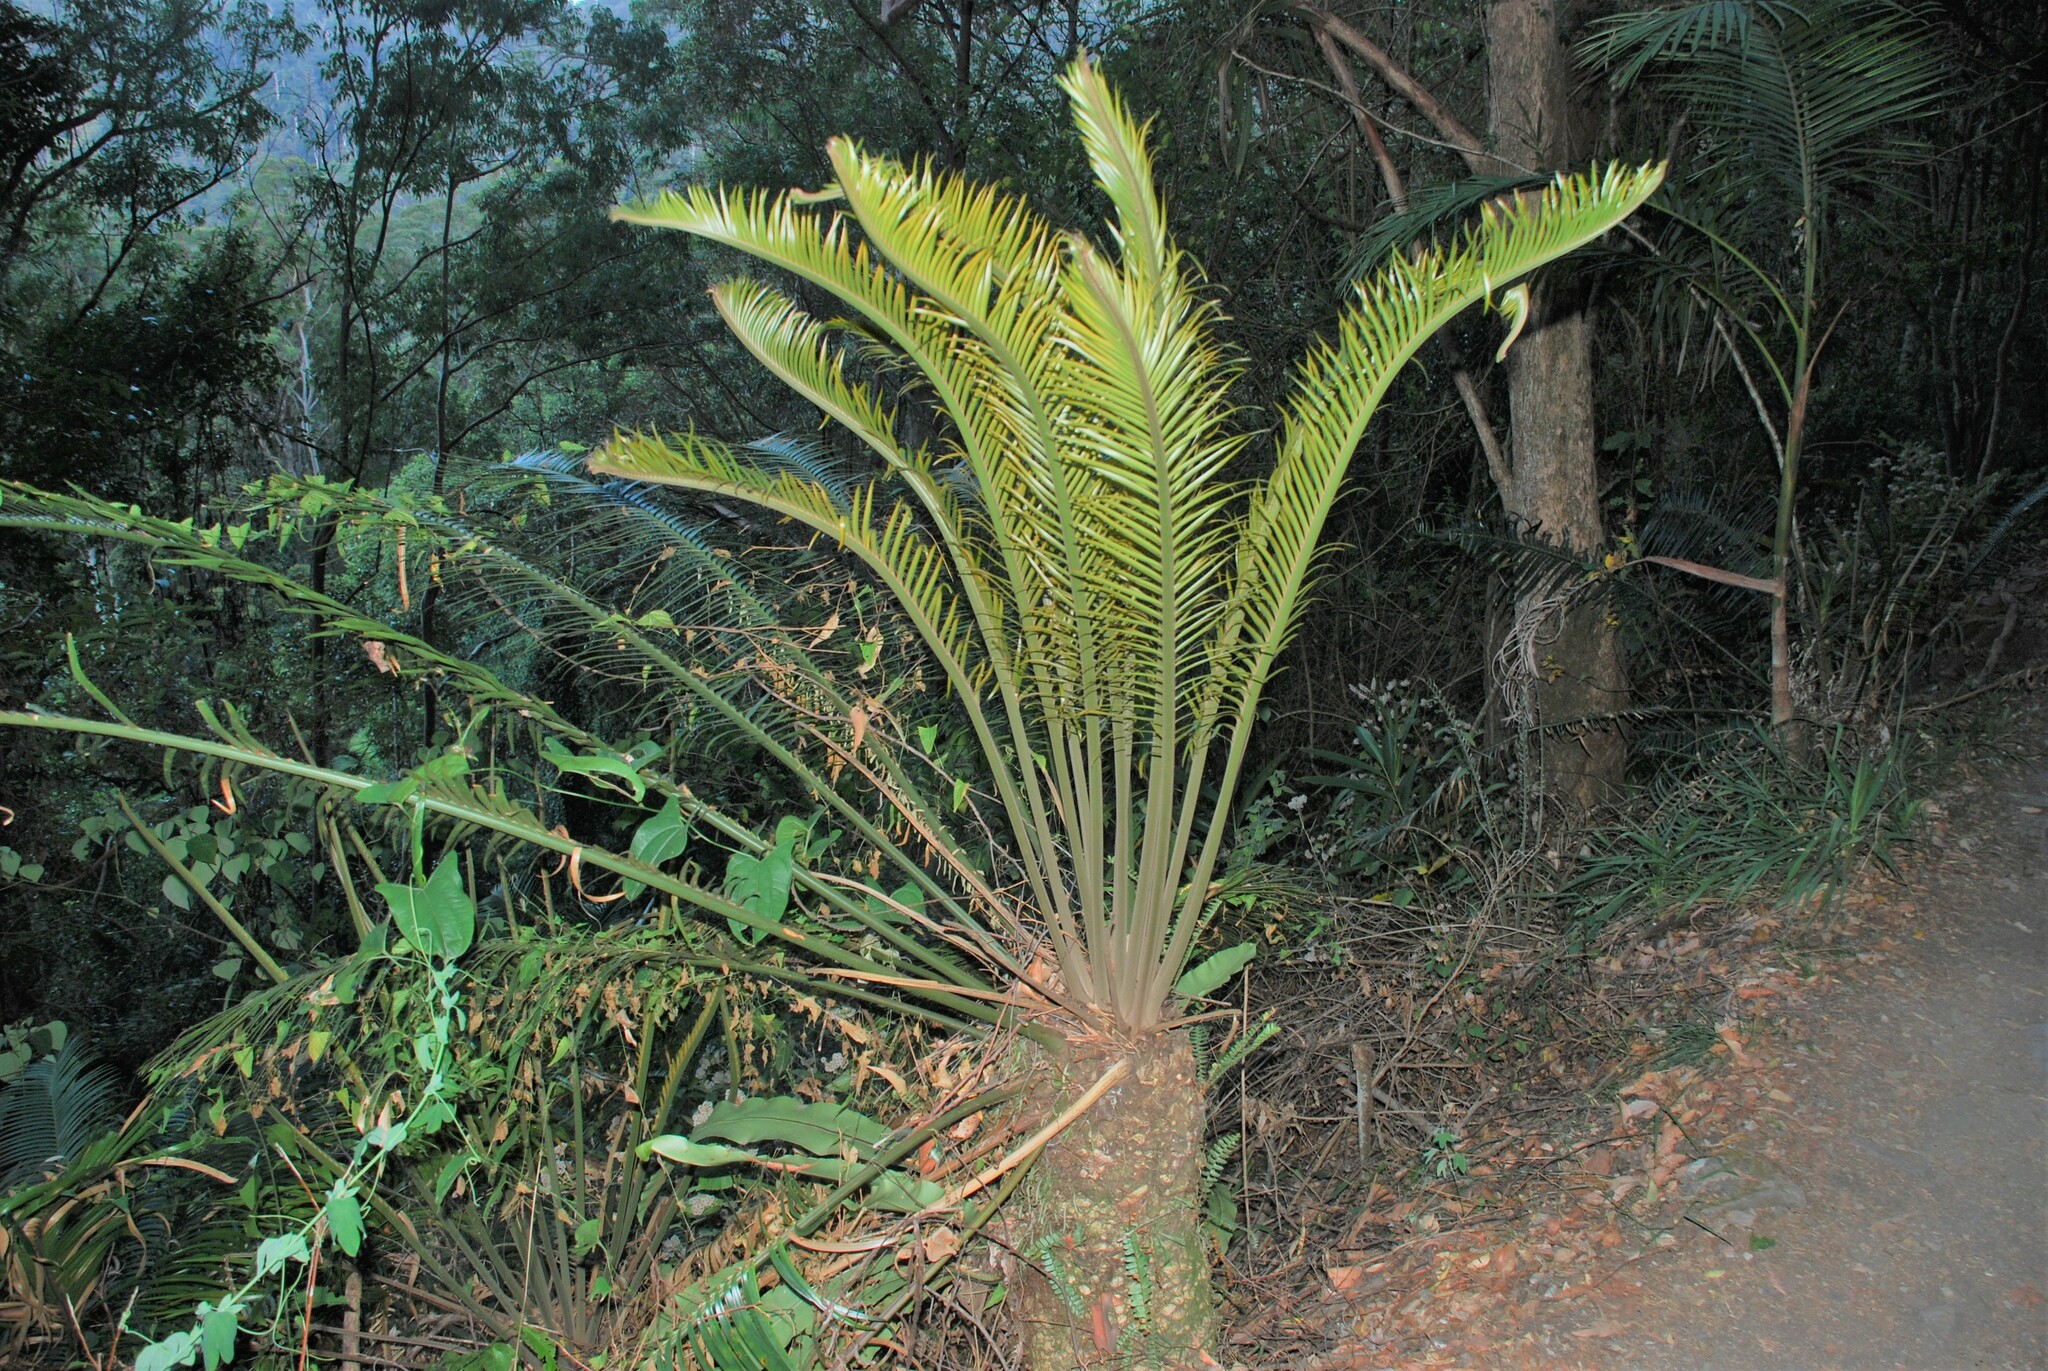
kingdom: Plantae
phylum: Tracheophyta
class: Cycadopsida
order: Cycadales
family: Zamiaceae
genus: Lepidozamia
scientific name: Lepidozamia peroffskyana
